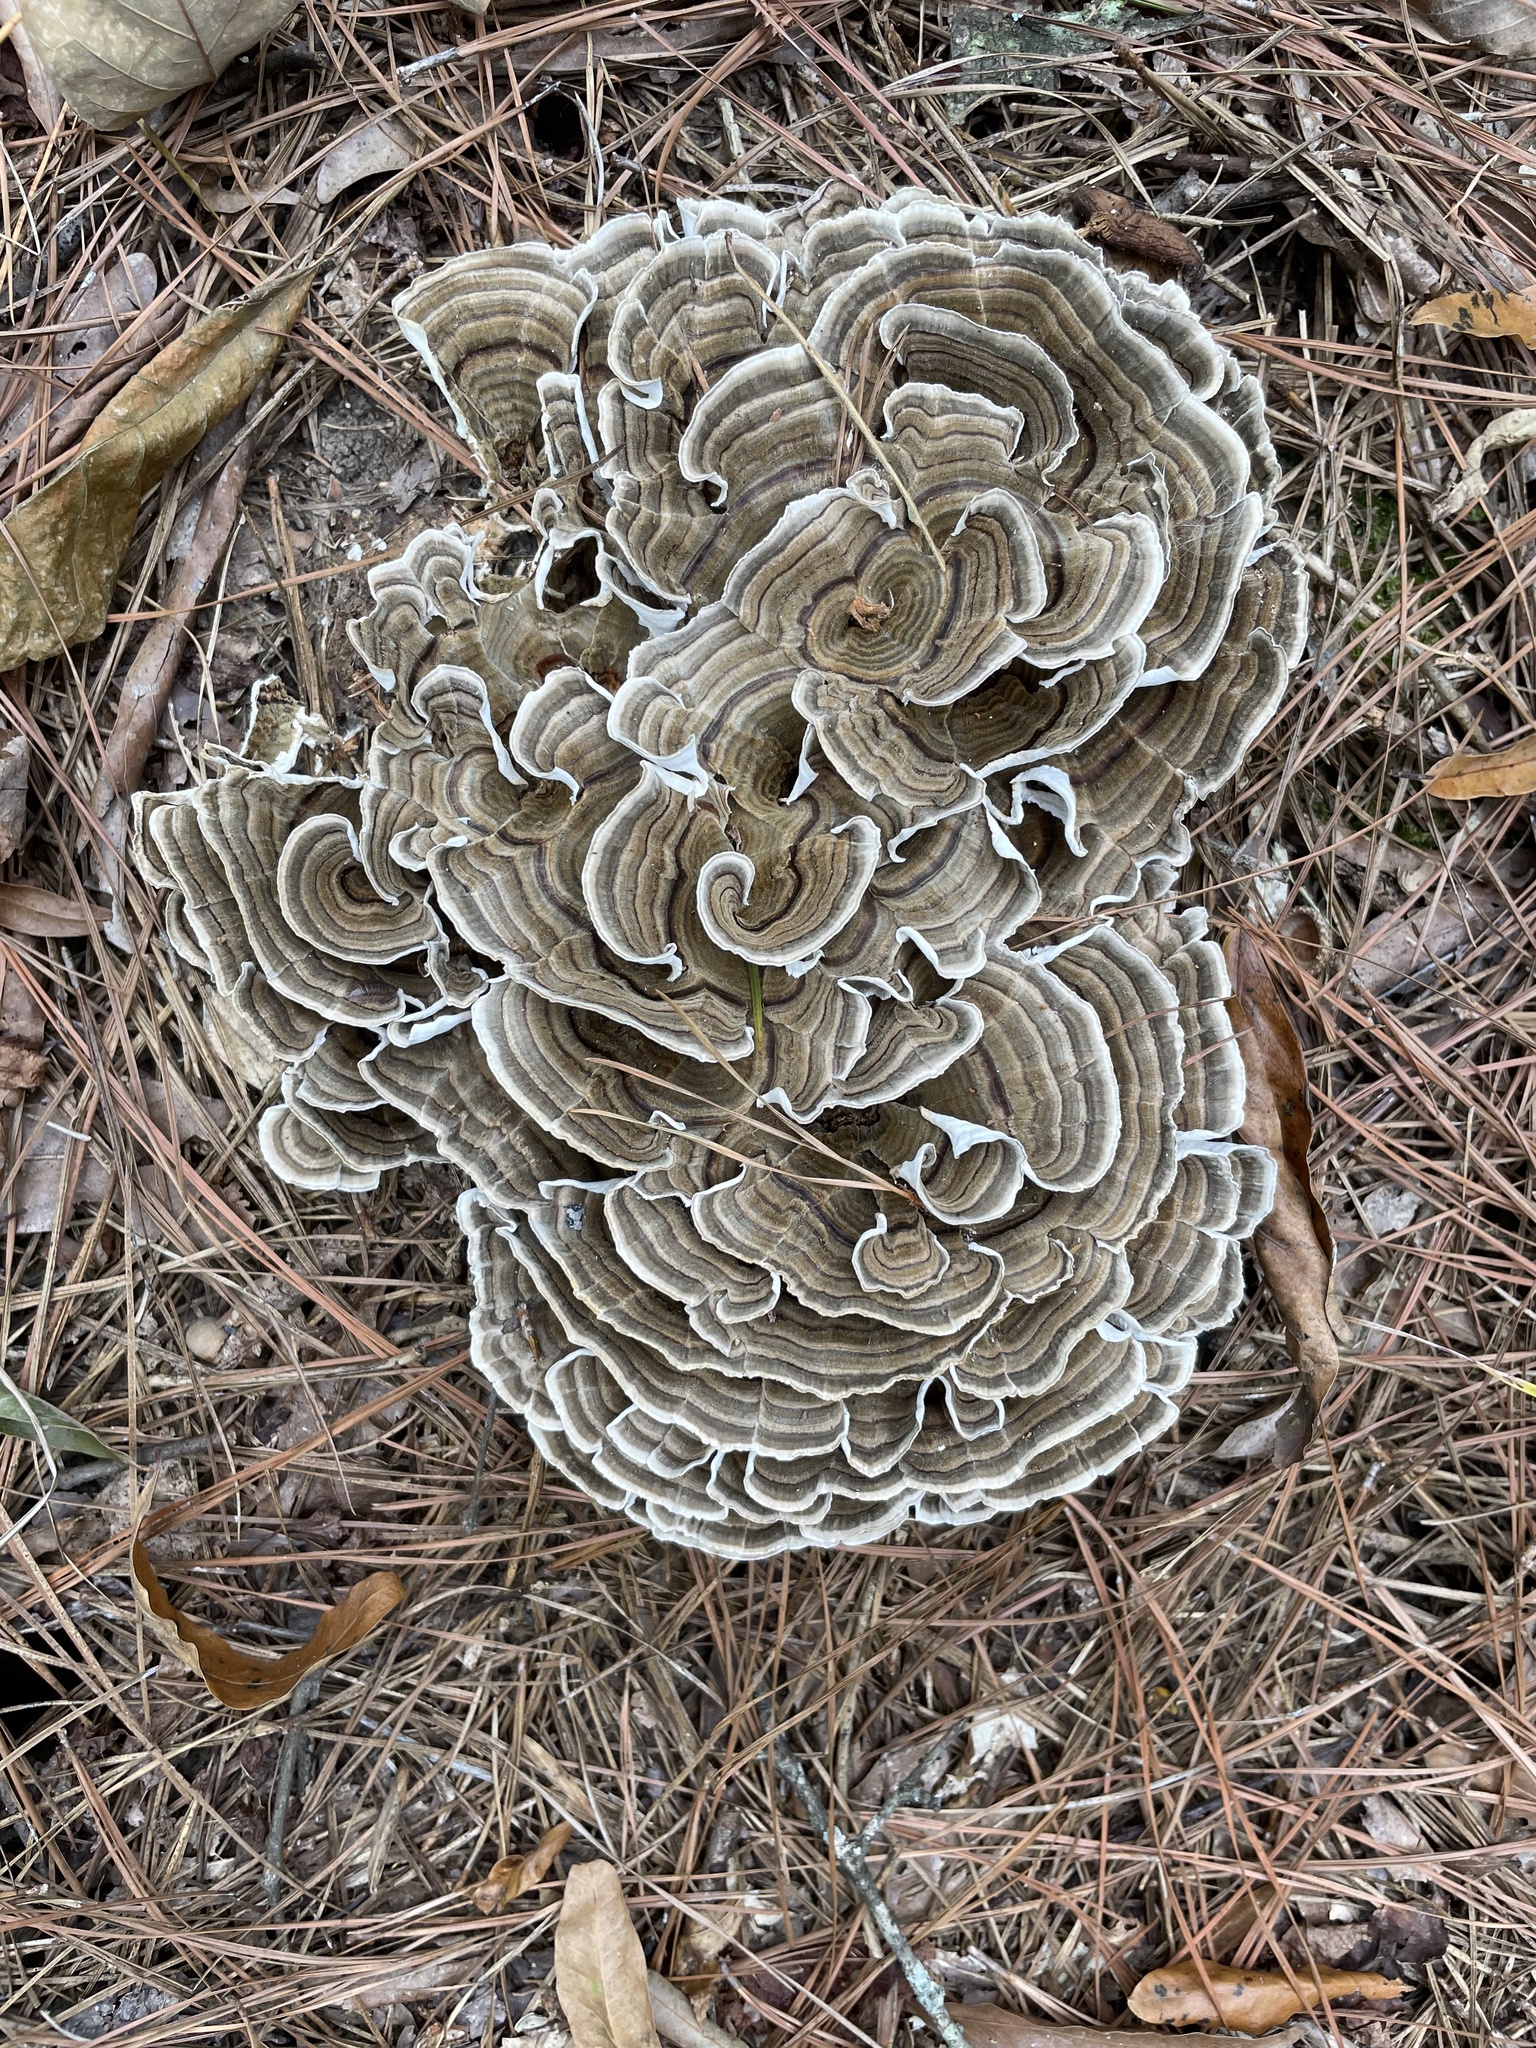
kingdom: Fungi
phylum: Basidiomycota
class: Agaricomycetes
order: Polyporales
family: Polyporaceae
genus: Trametes
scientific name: Trametes versicolor
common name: Turkeytail
